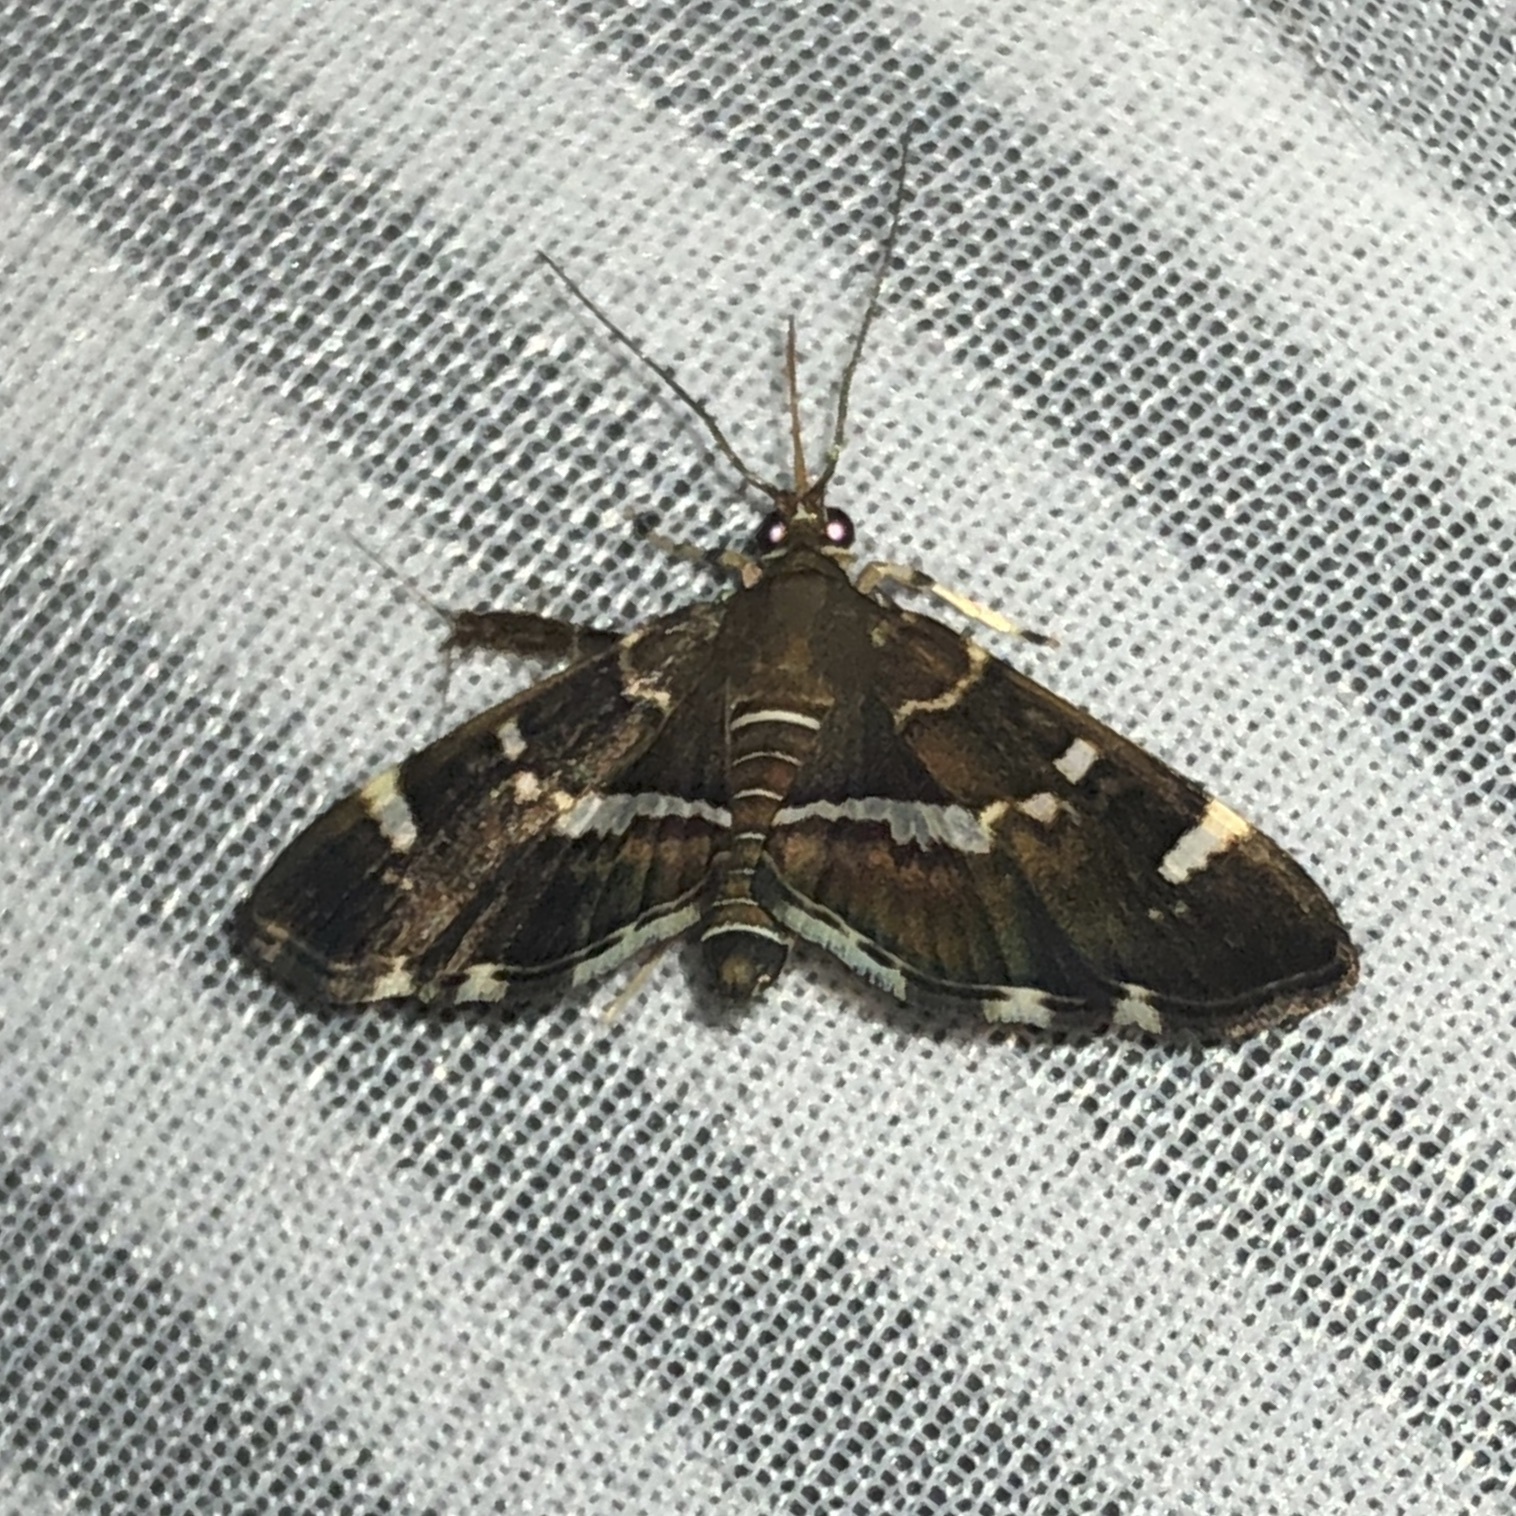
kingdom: Animalia
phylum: Arthropoda
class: Insecta
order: Lepidoptera
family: Crambidae
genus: Hymenia
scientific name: Hymenia perspectalis
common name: Spotted beet webworm
